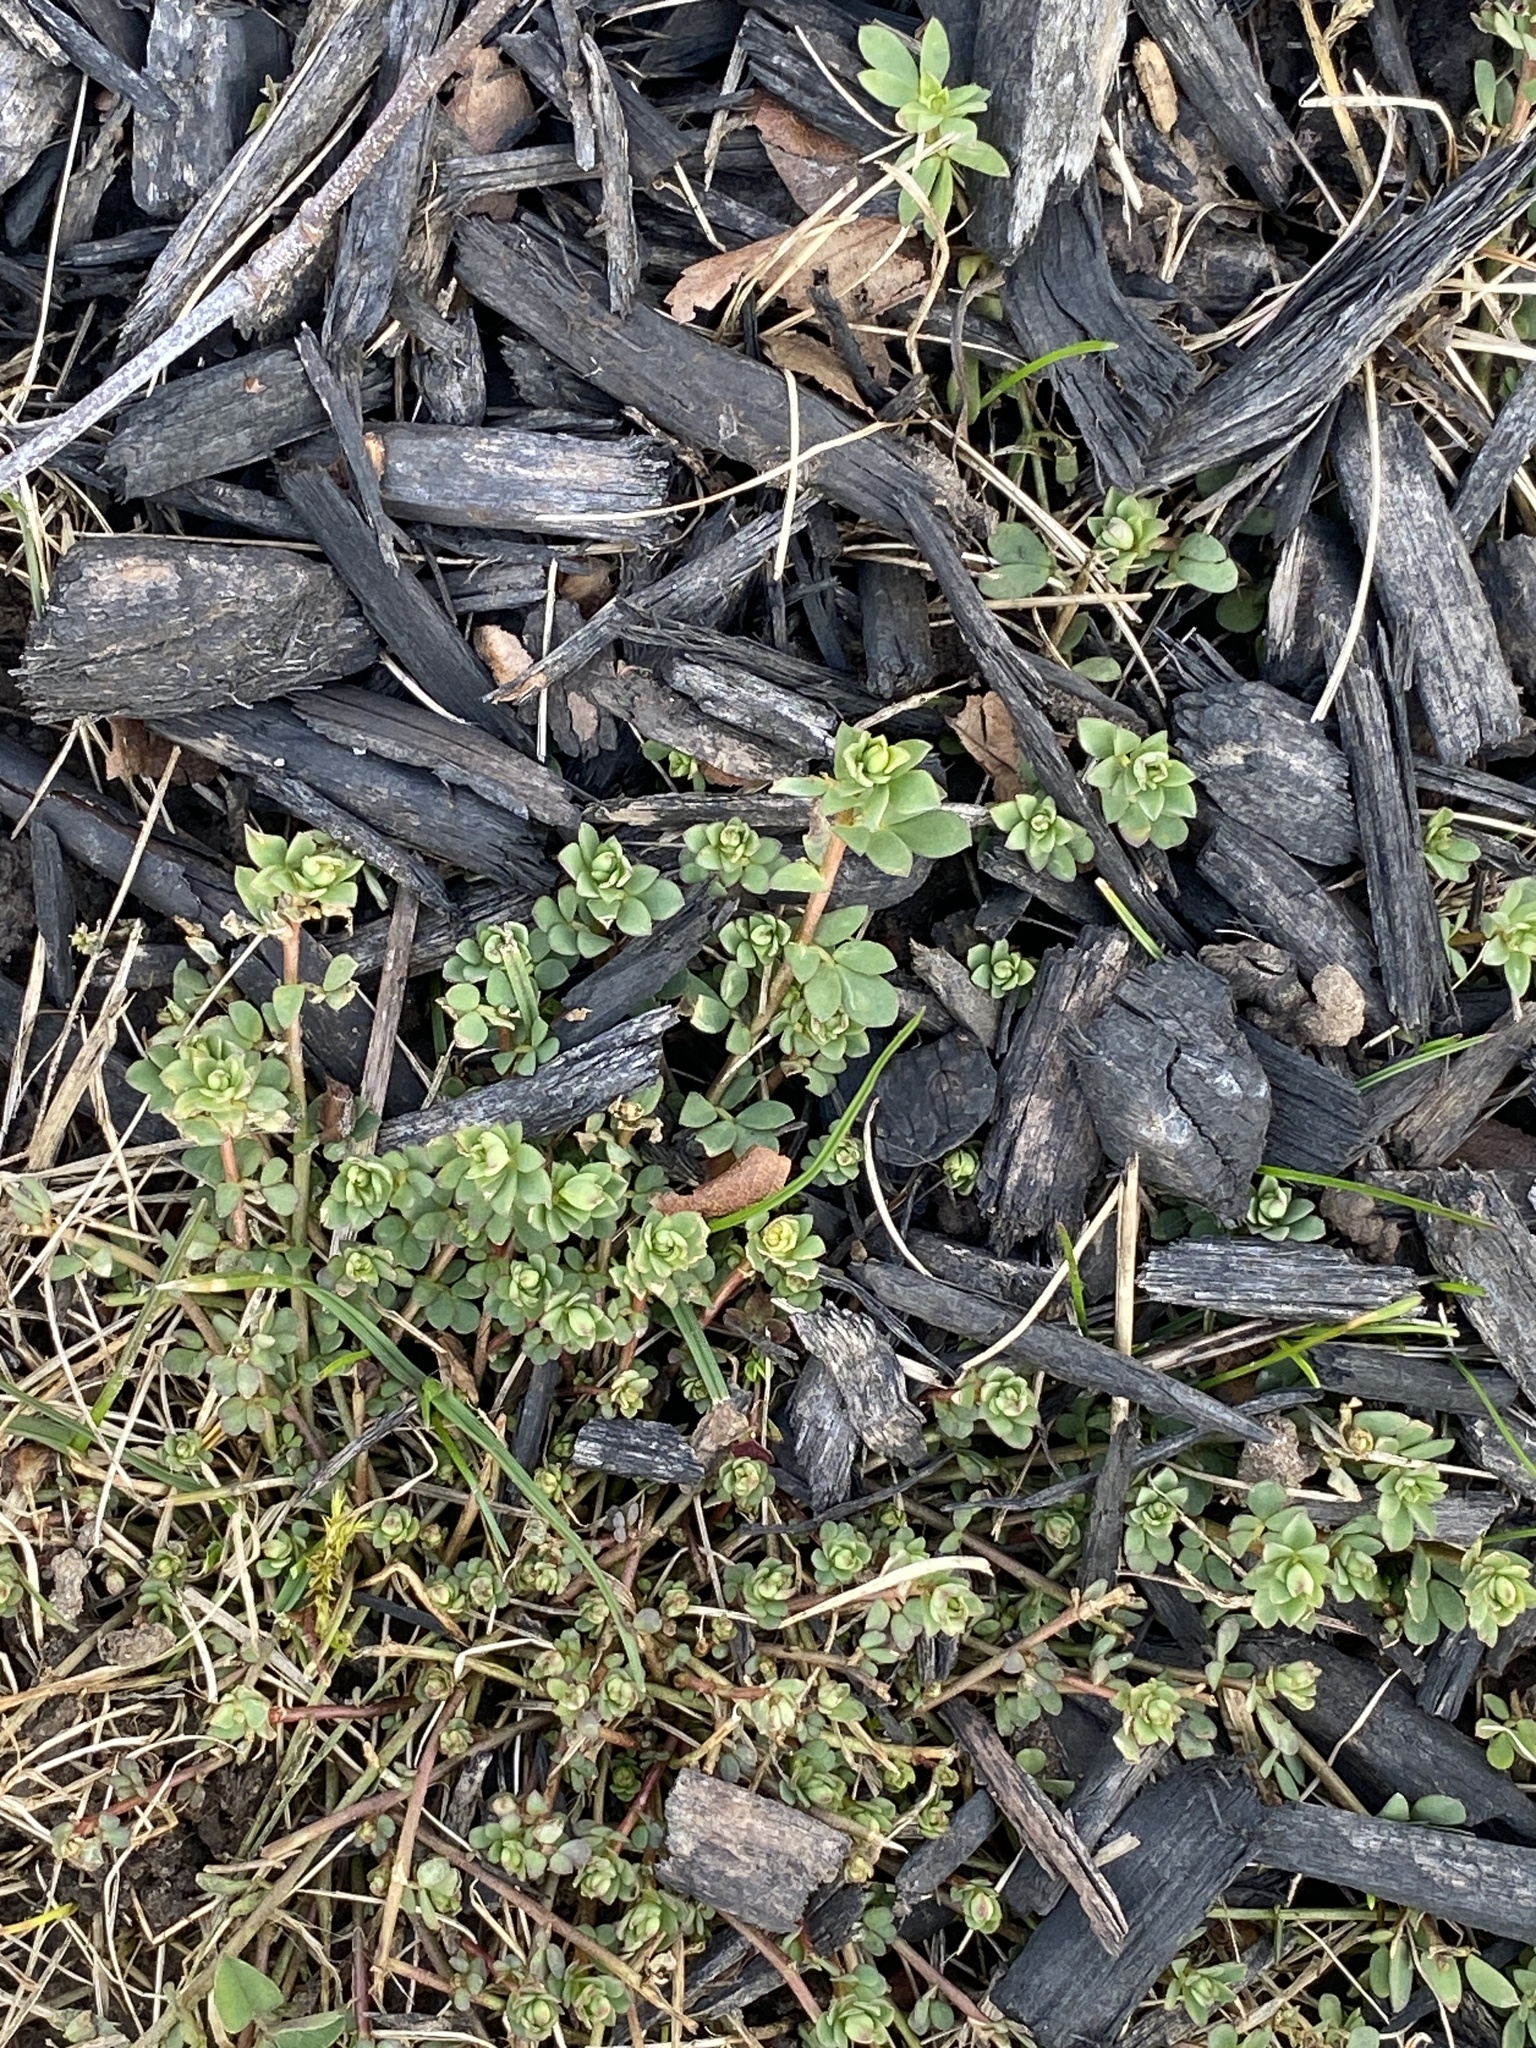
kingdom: Plantae
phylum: Tracheophyta
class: Magnoliopsida
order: Fabales
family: Fabaceae
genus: Lotus
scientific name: Lotus corniculatus
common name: Common bird's-foot-trefoil
